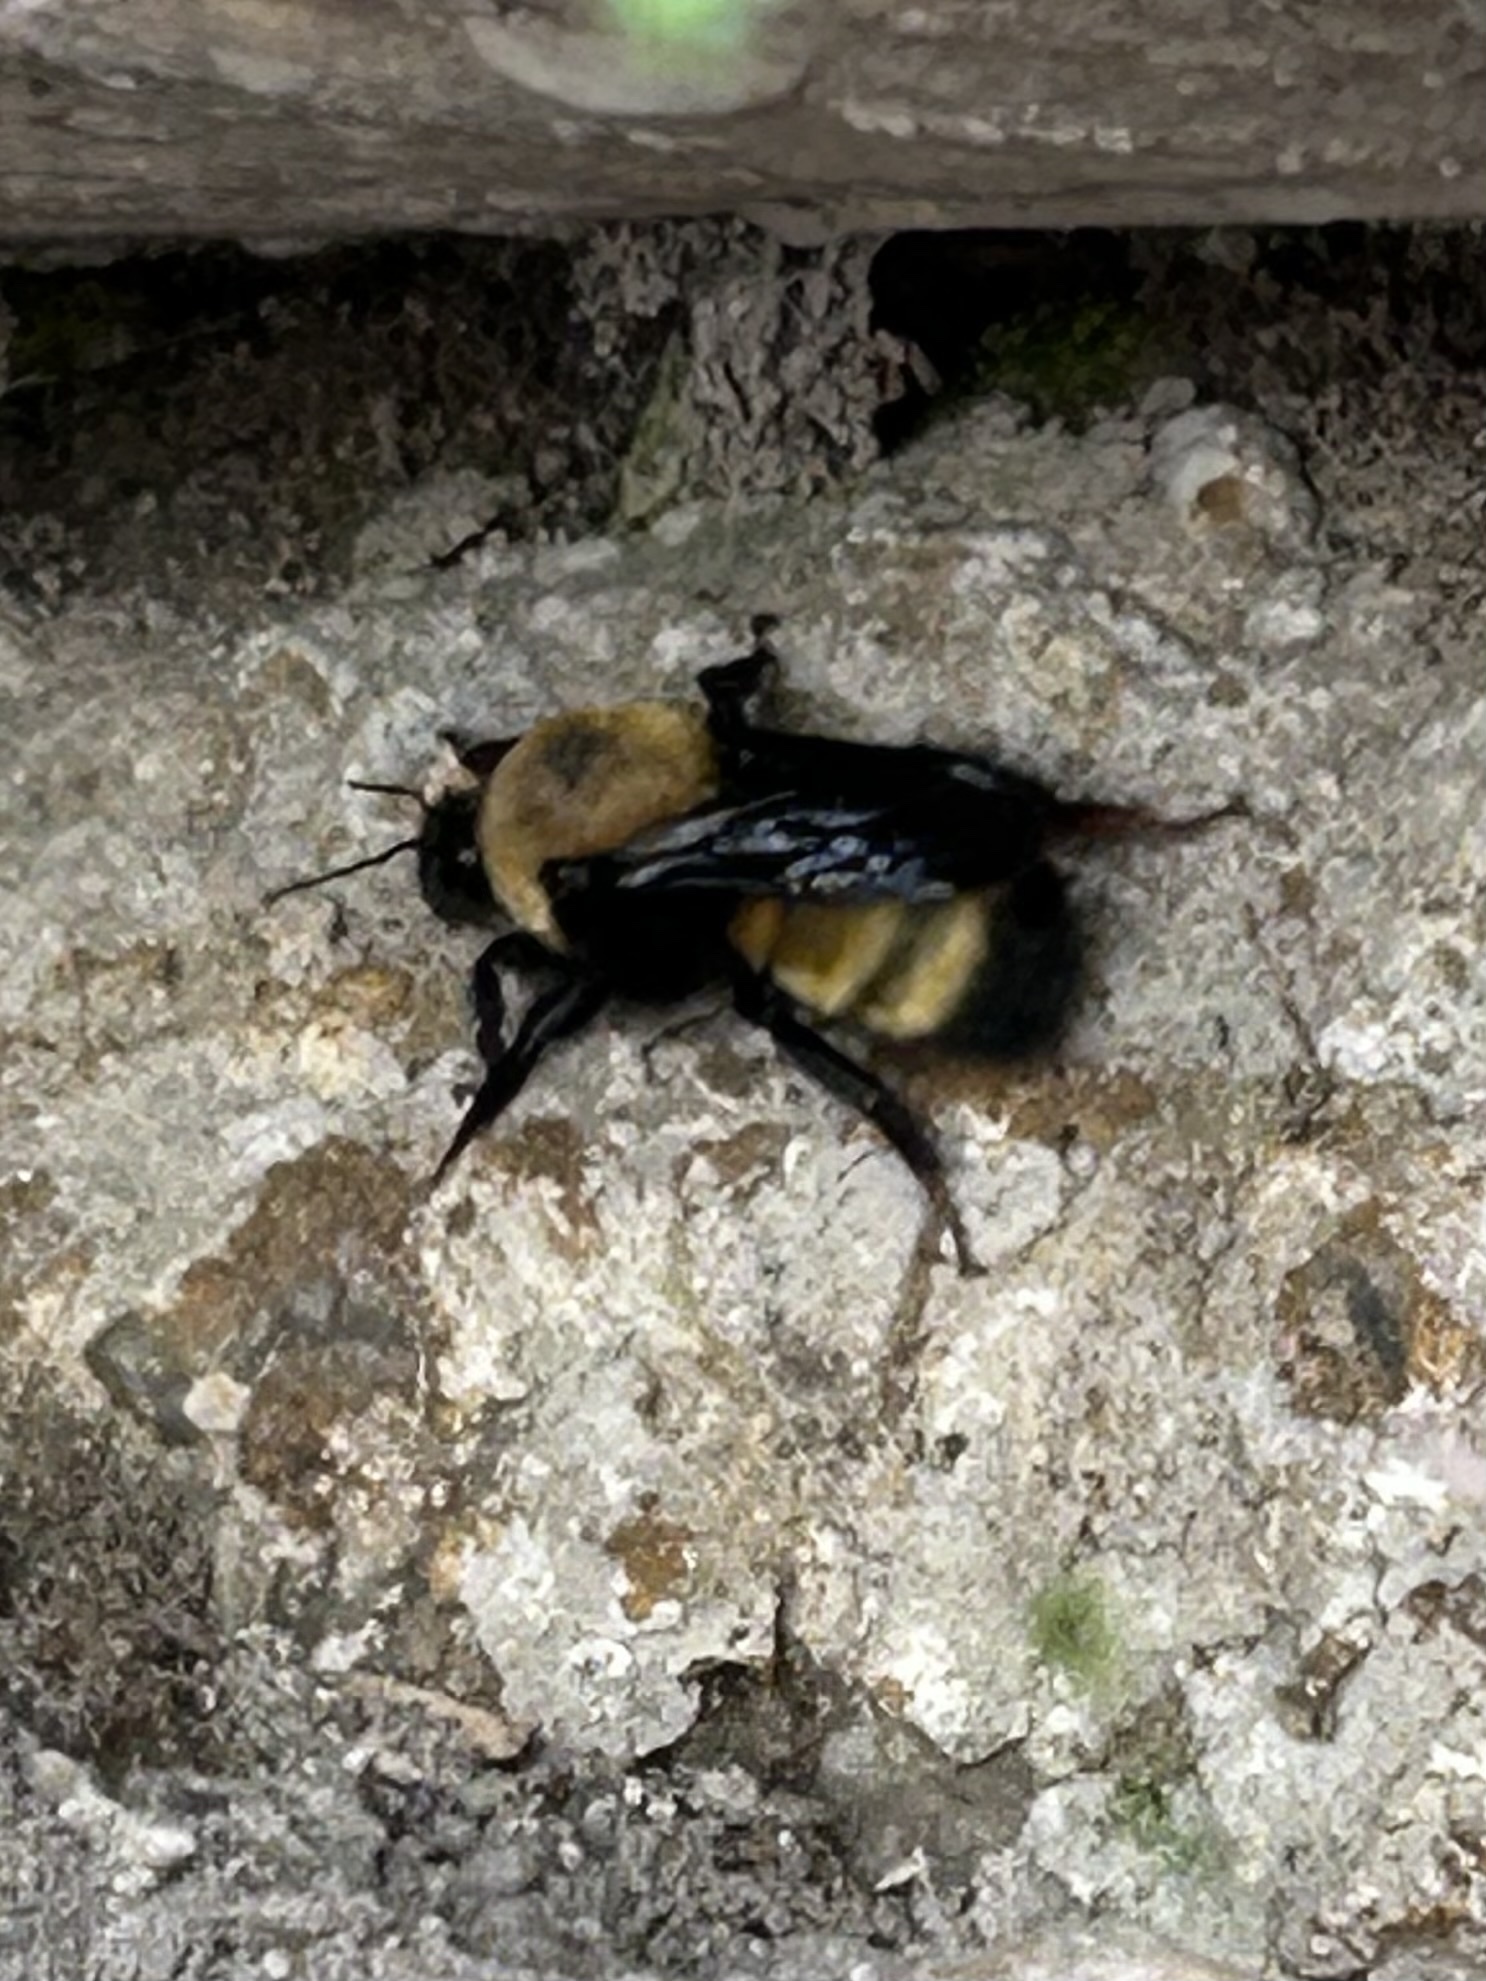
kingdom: Animalia
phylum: Arthropoda
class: Insecta
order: Hymenoptera
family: Apidae
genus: Bombus
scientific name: Bombus nevadensis
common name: Nevada bumble bee
